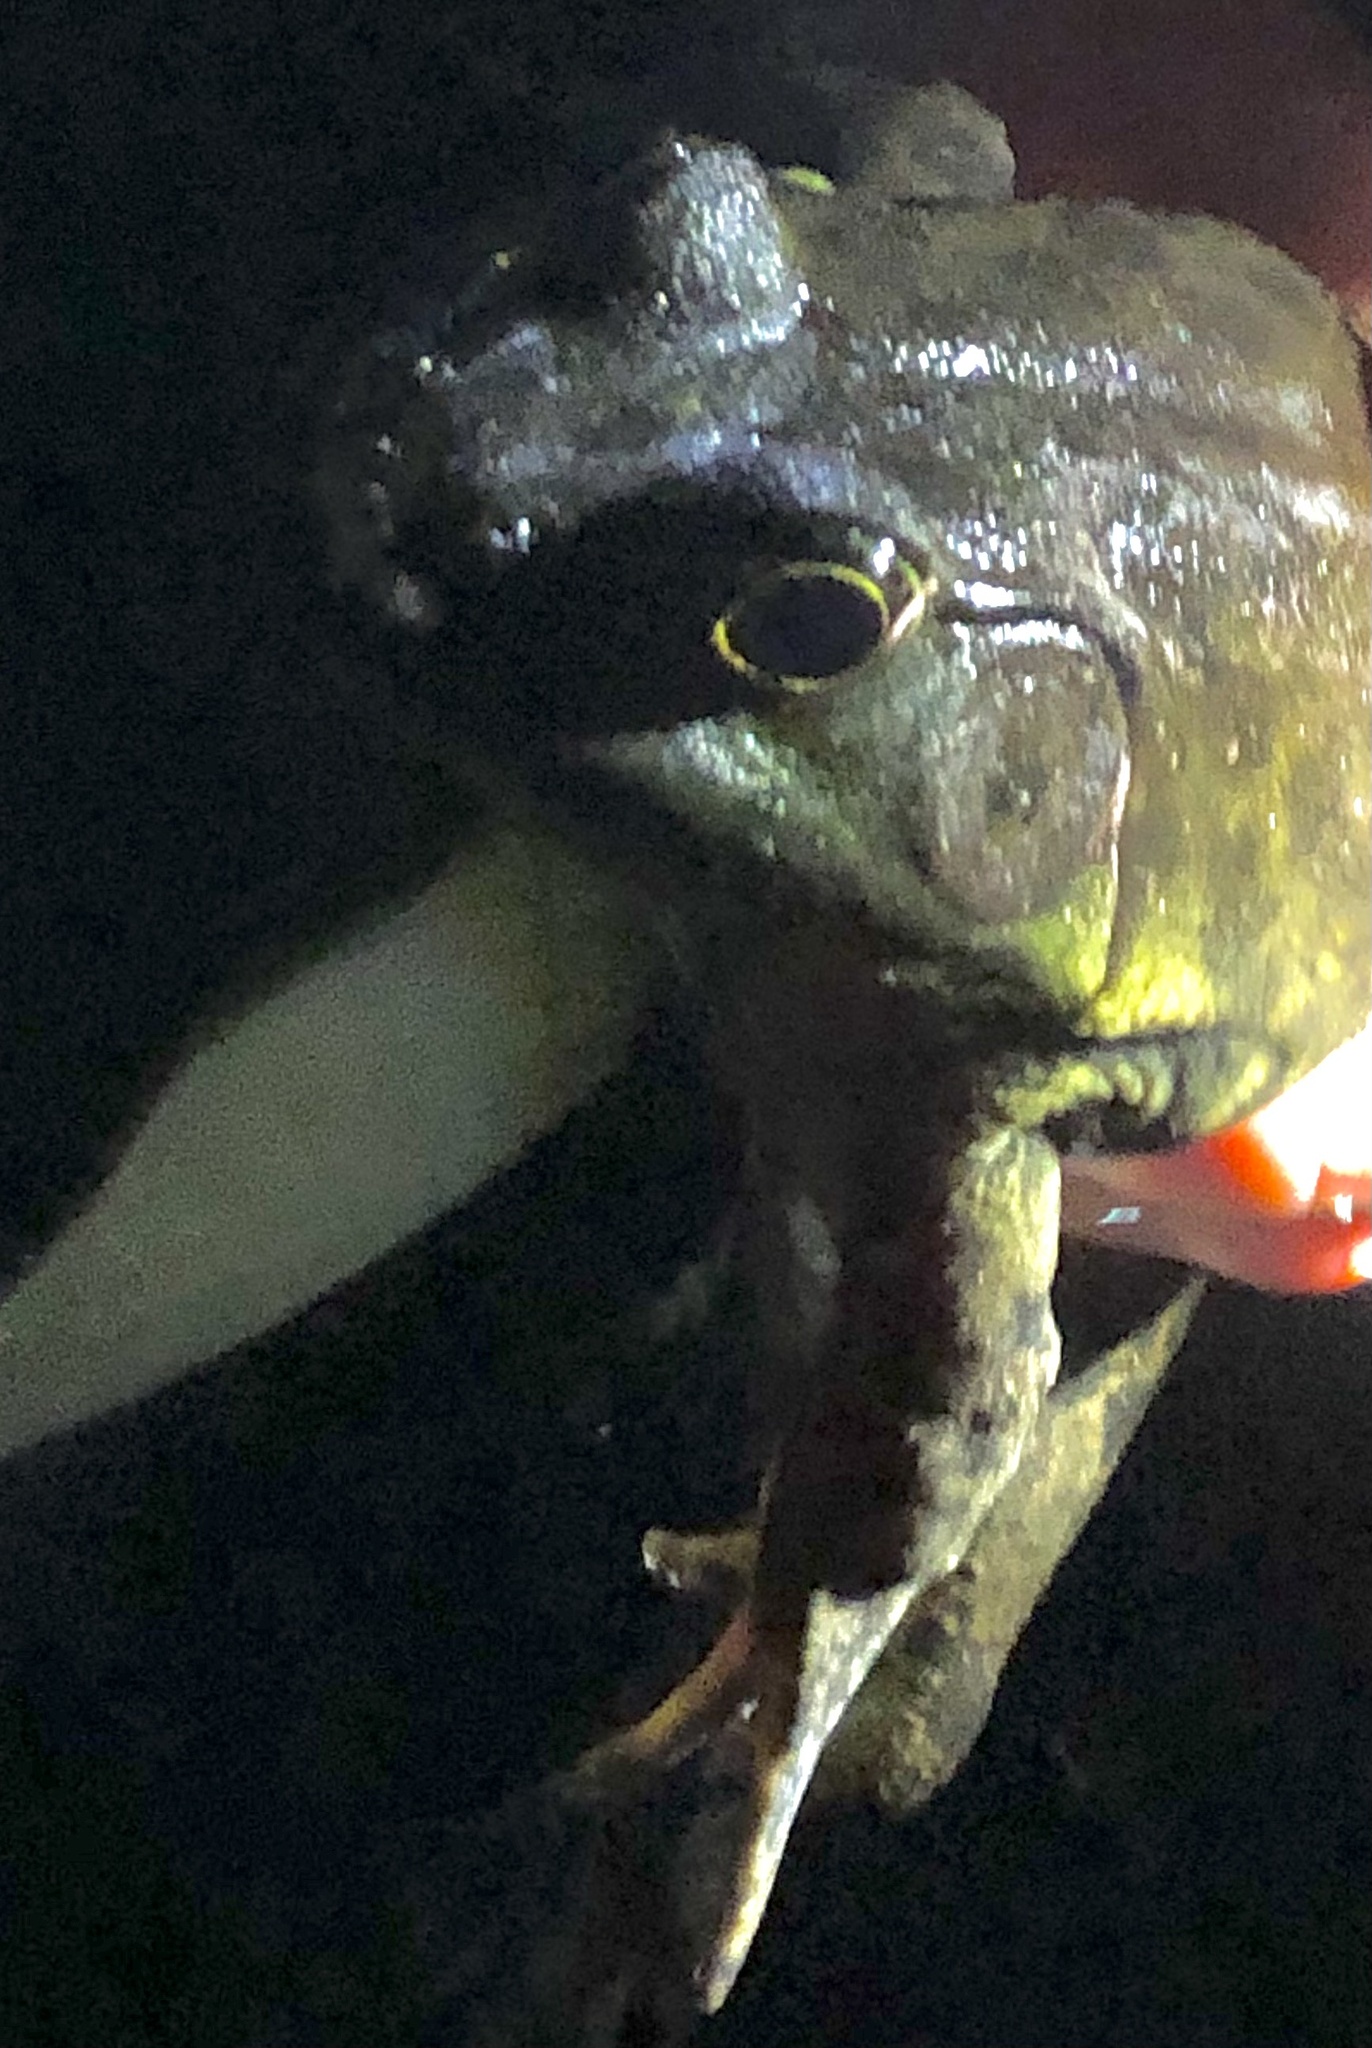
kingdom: Animalia
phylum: Chordata
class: Amphibia
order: Anura
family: Ranidae
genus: Lithobates
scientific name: Lithobates catesbeianus
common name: American bullfrog
